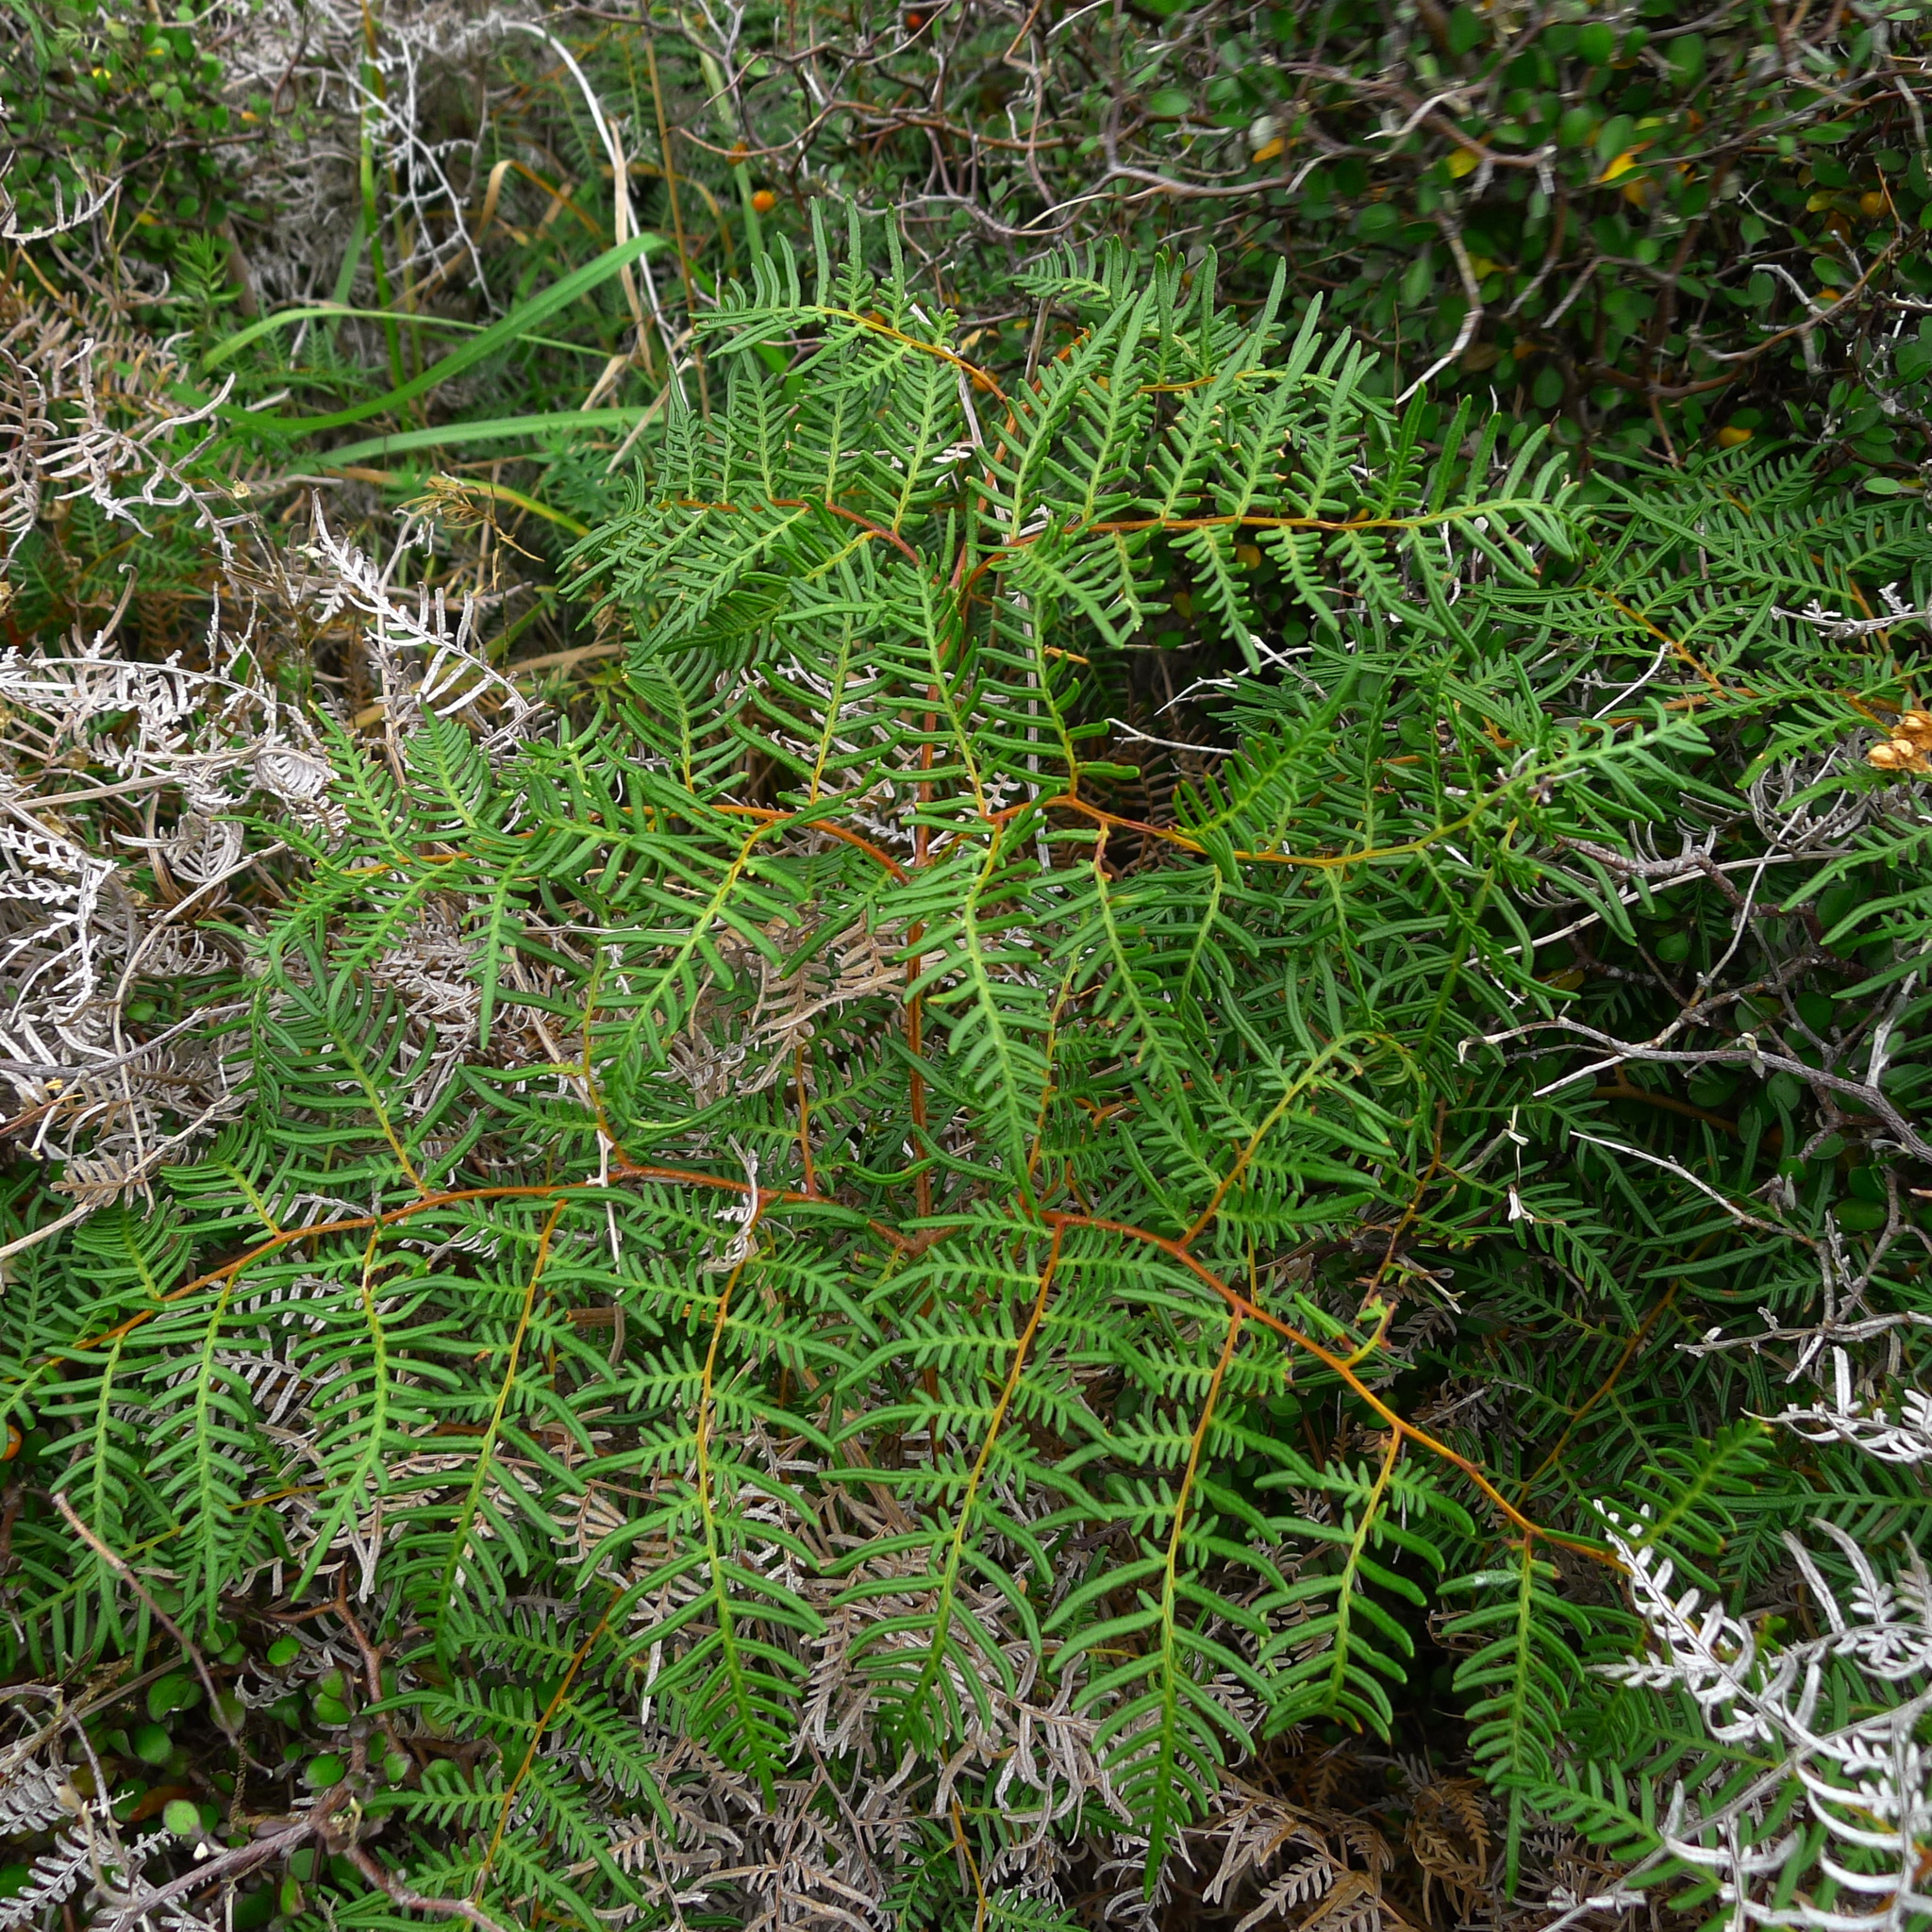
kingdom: Plantae
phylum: Tracheophyta
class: Polypodiopsida
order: Polypodiales
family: Dennstaedtiaceae
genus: Pteridium
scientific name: Pteridium esculentum
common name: Bracken fern
